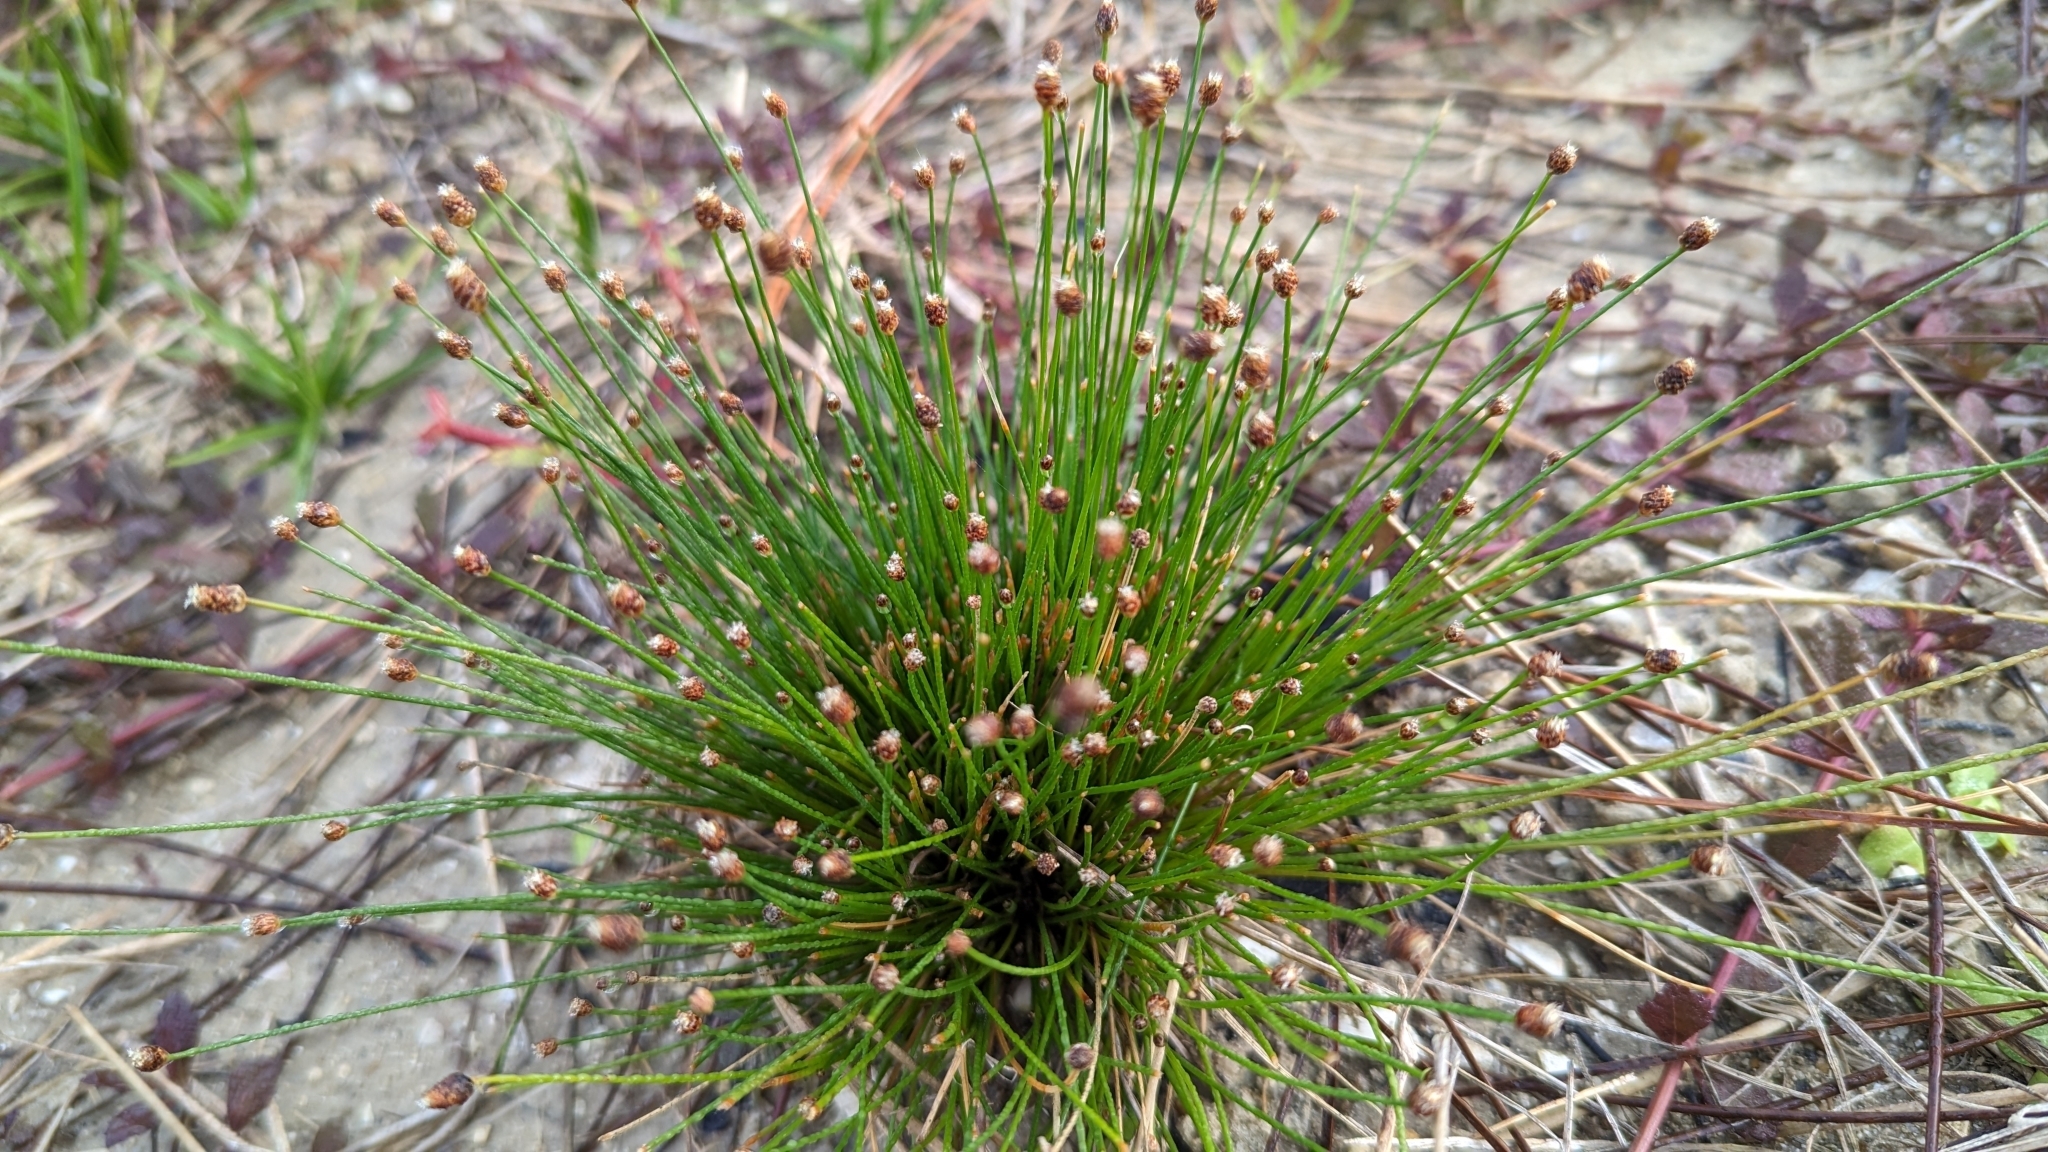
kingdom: Plantae
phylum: Tracheophyta
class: Liliopsida
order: Poales
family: Cyperaceae
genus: Eleocharis
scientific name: Eleocharis geniculata
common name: Canada spikesedge
